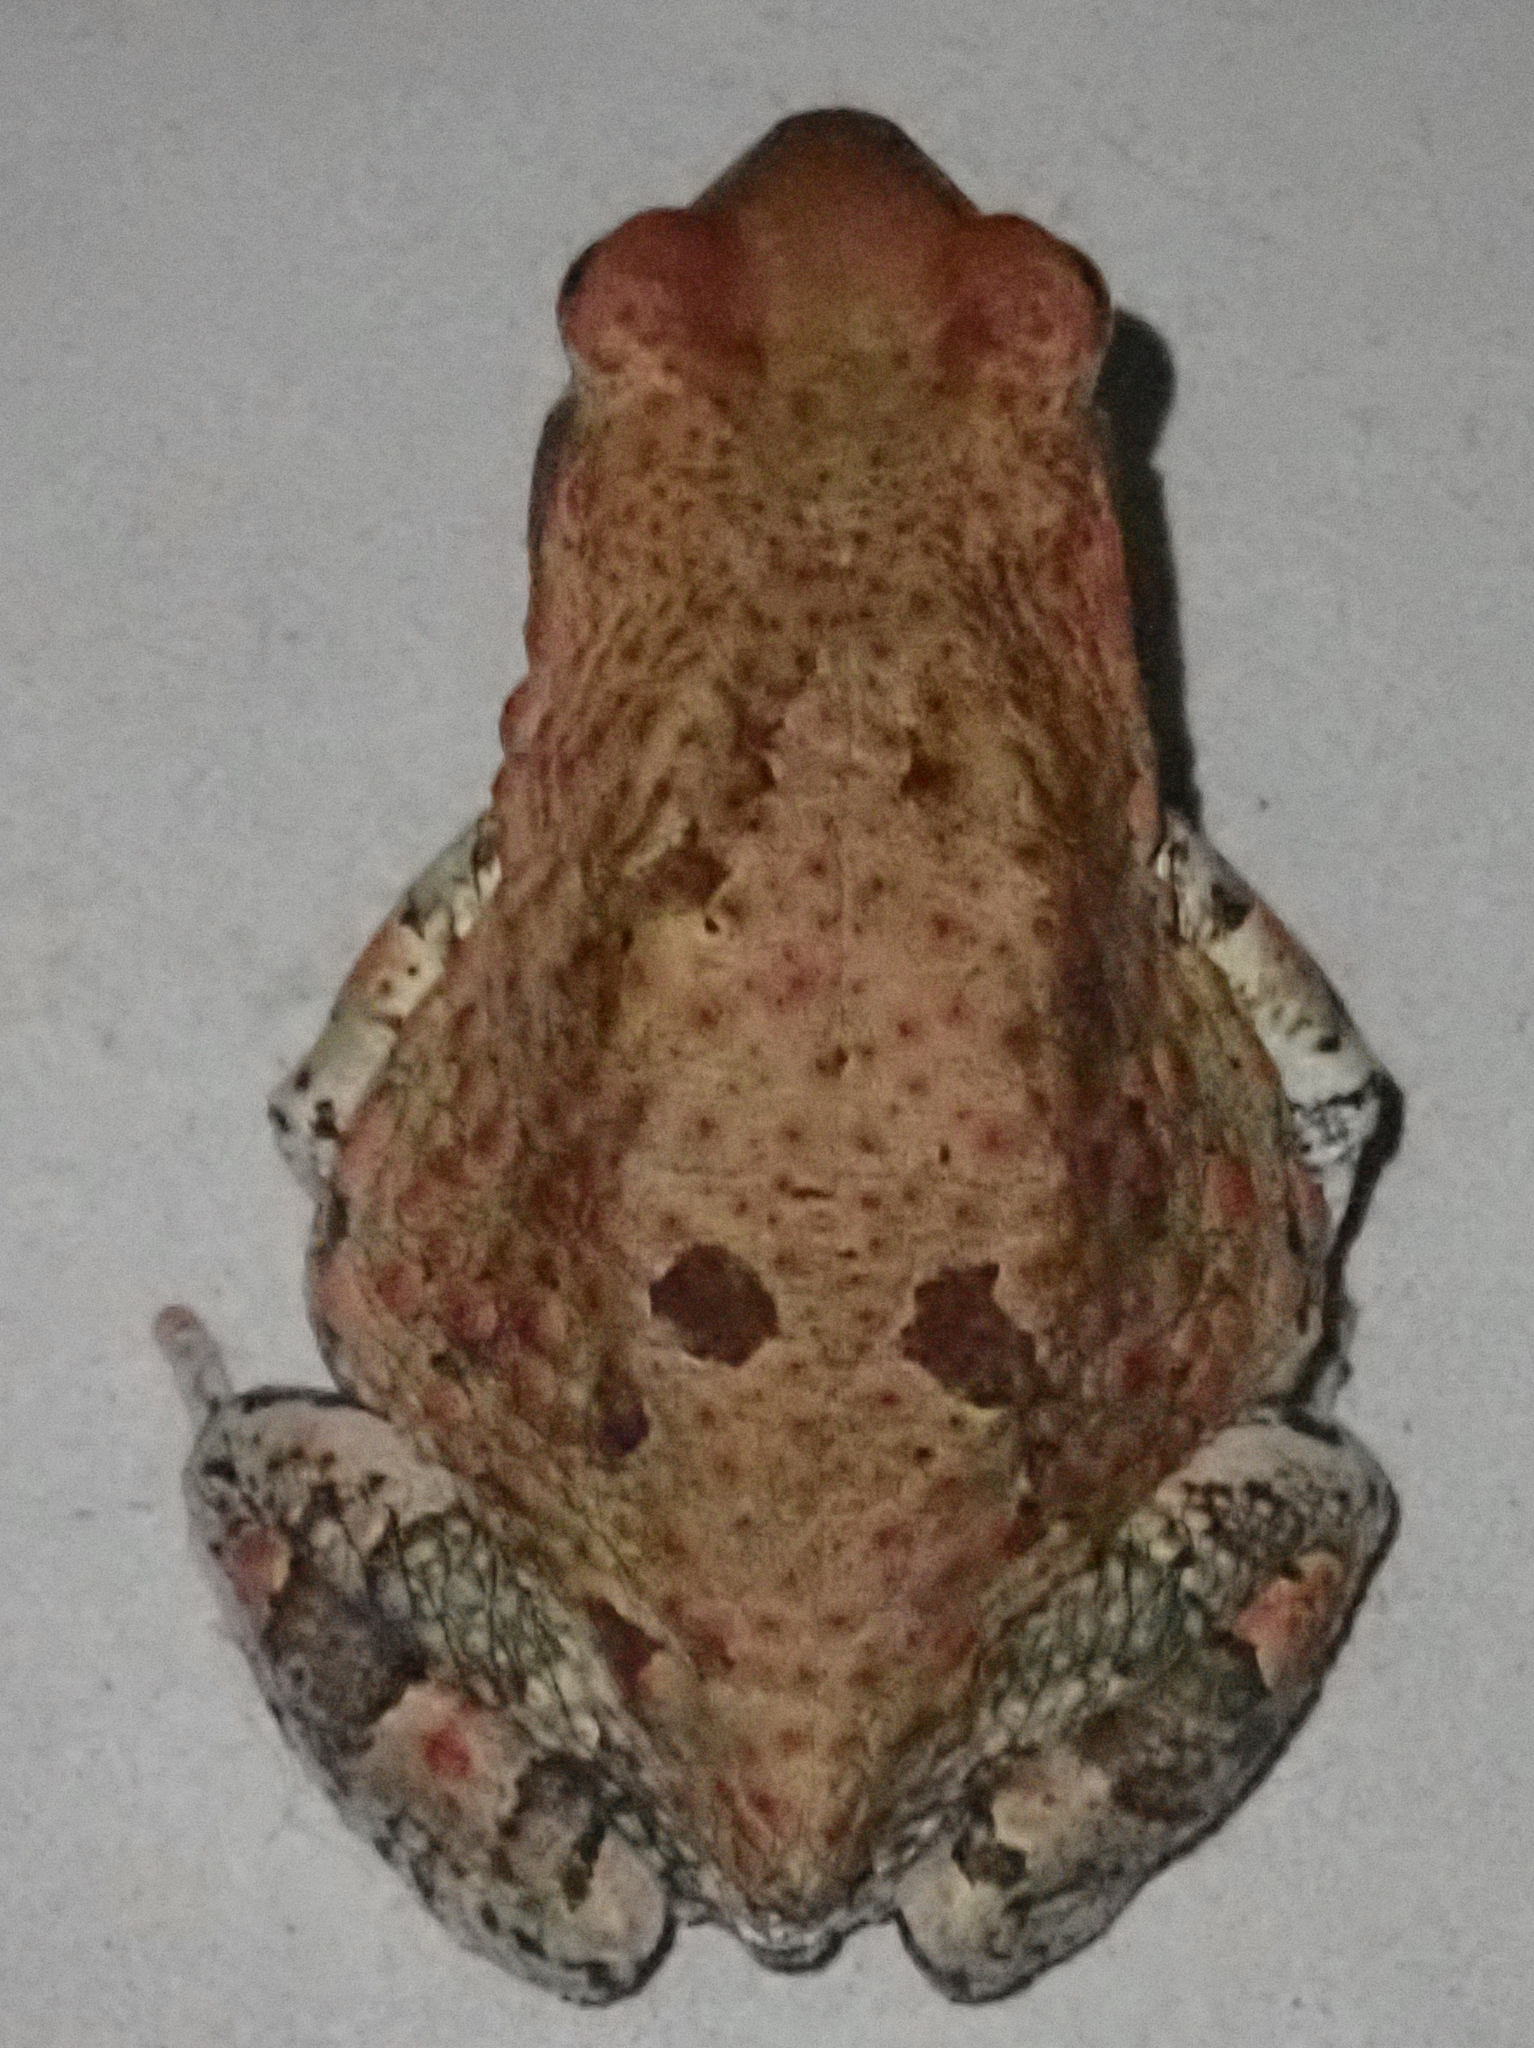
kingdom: Animalia
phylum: Chordata
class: Amphibia
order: Anura
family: Bufonidae
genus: Schismaderma
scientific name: Schismaderma carens
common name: African split-skin toad
